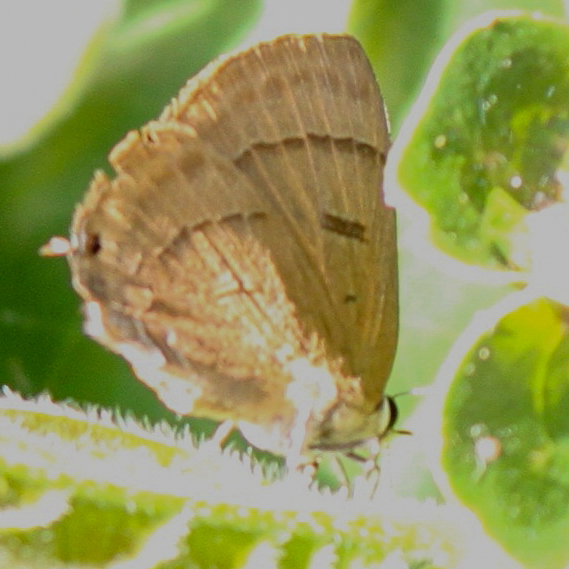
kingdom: Animalia
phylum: Arthropoda
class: Insecta
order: Lepidoptera
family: Lycaenidae
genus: Rapala
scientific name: Rapala pheretima
